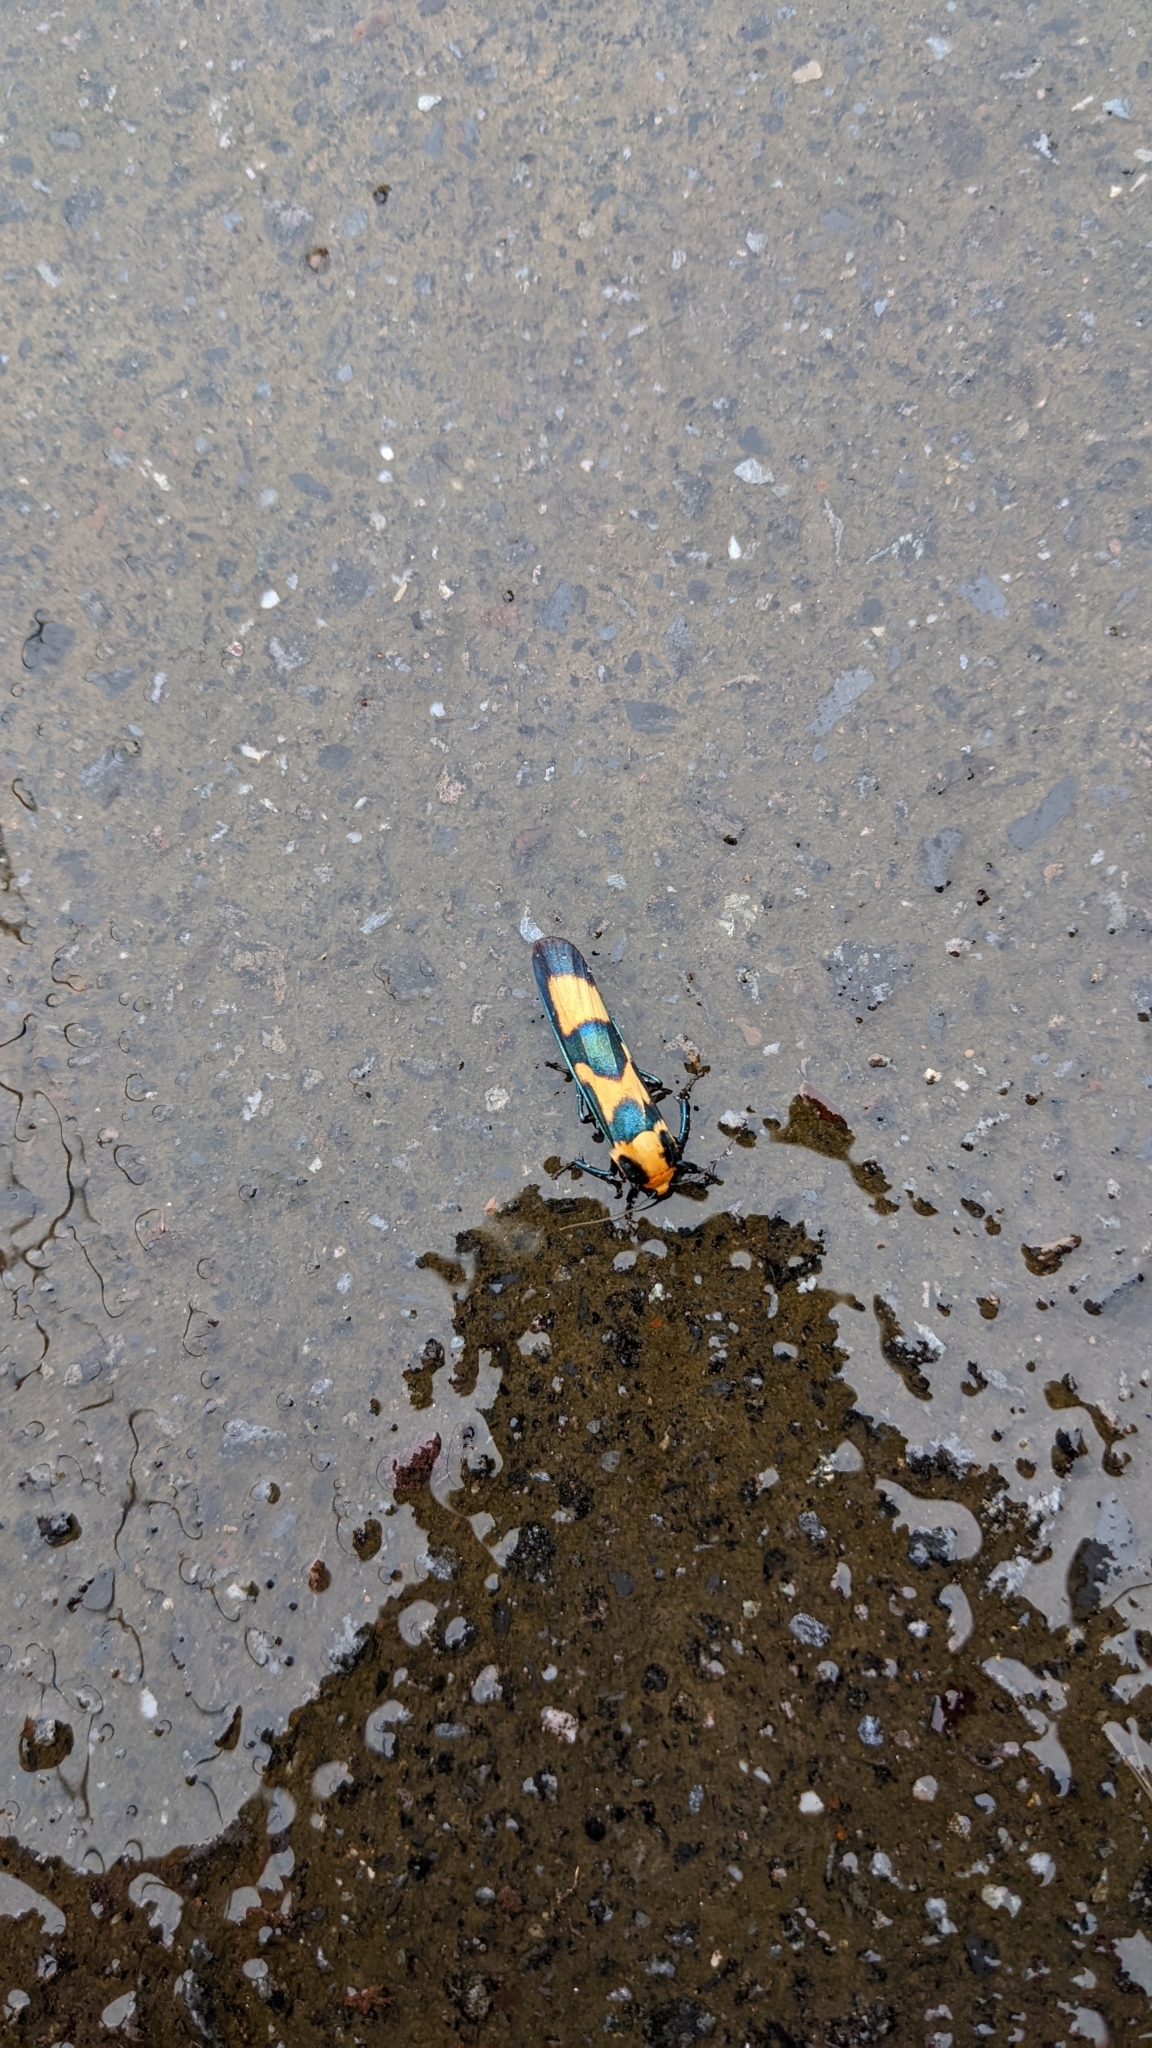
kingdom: Animalia
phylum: Arthropoda
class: Insecta
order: Lepidoptera
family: Erebidae
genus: Chrysaeglia
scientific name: Chrysaeglia magnifica
